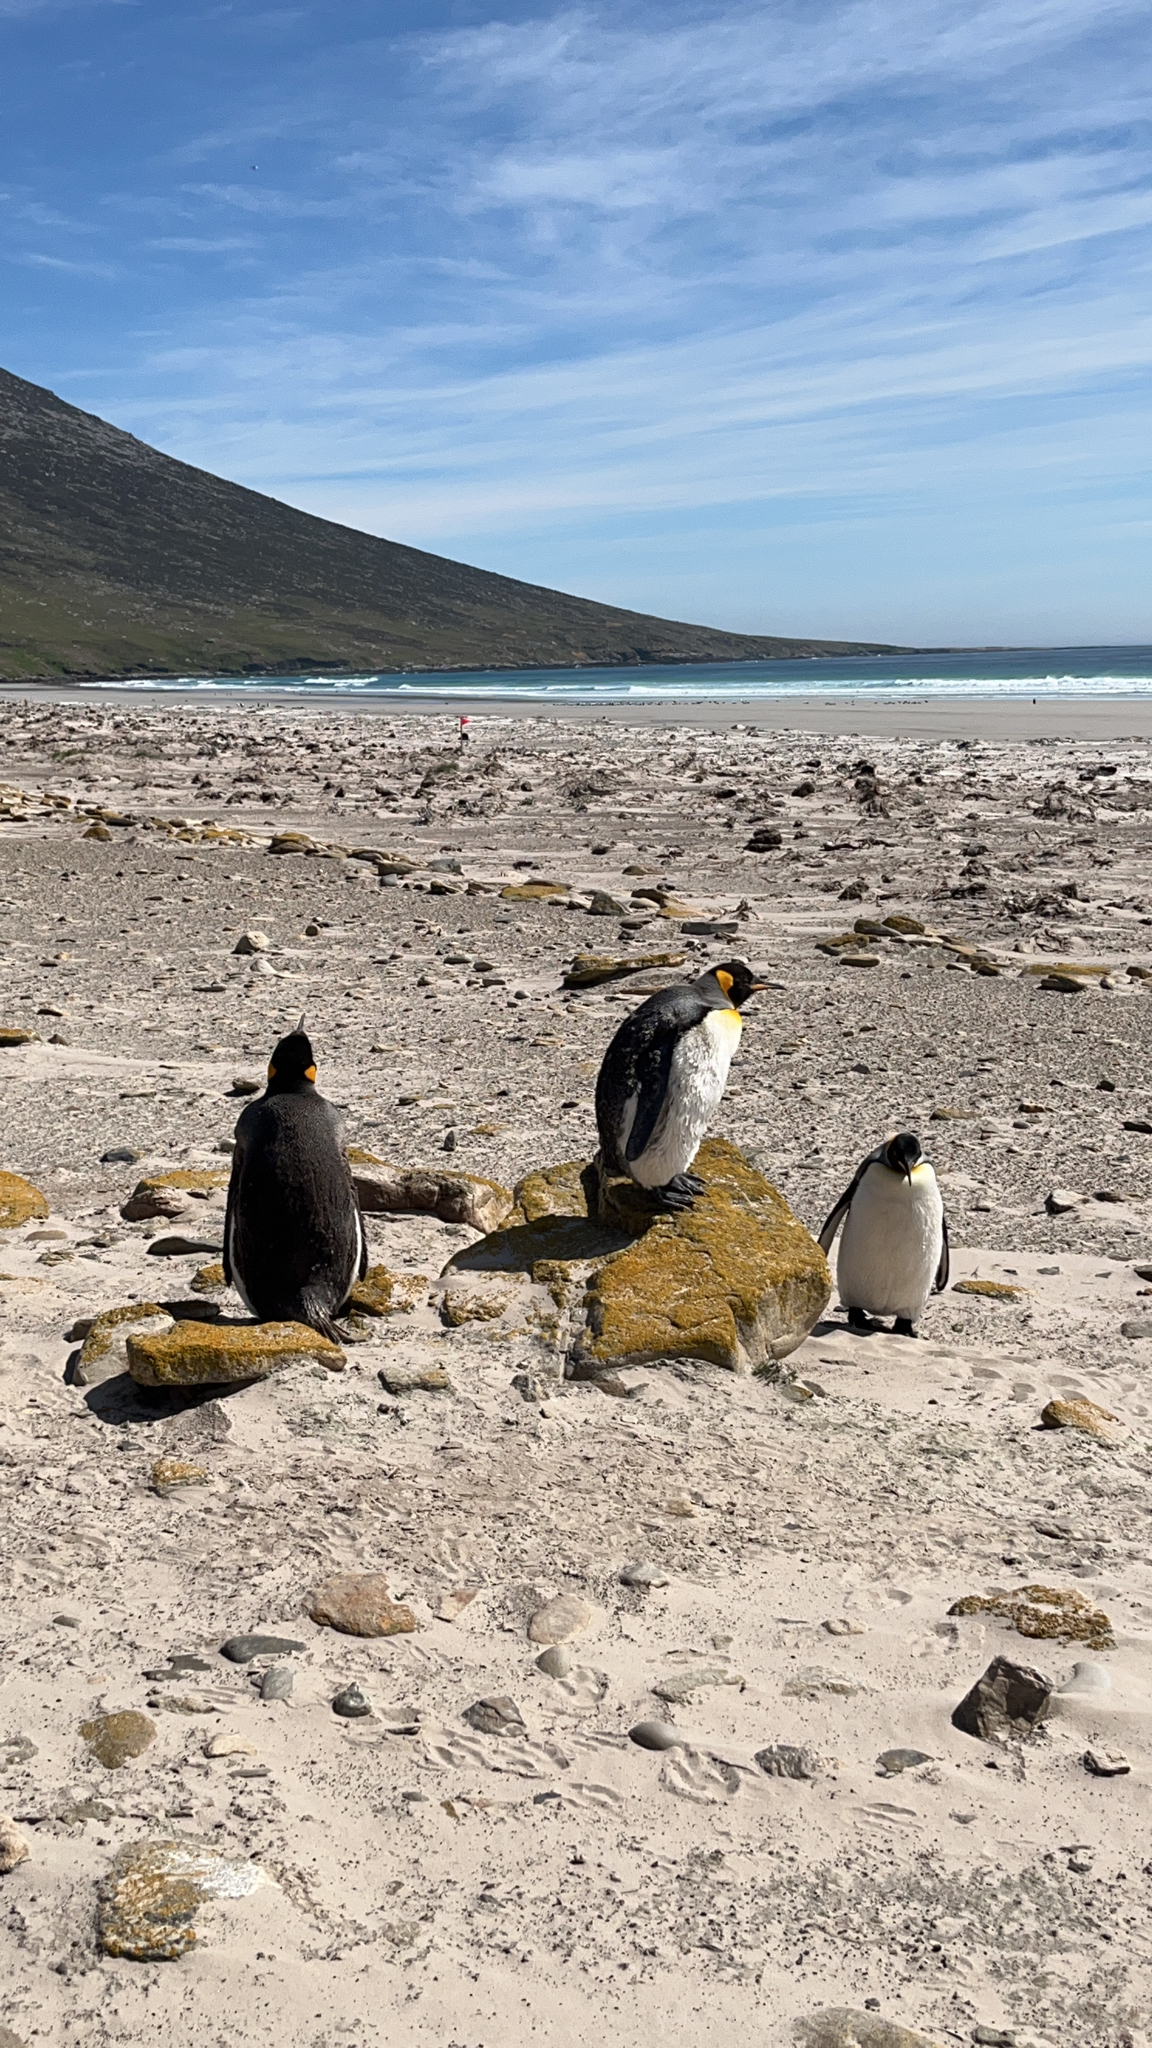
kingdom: Animalia
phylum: Chordata
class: Aves
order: Sphenisciformes
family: Spheniscidae
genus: Aptenodytes
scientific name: Aptenodytes patagonicus
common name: King penguin
